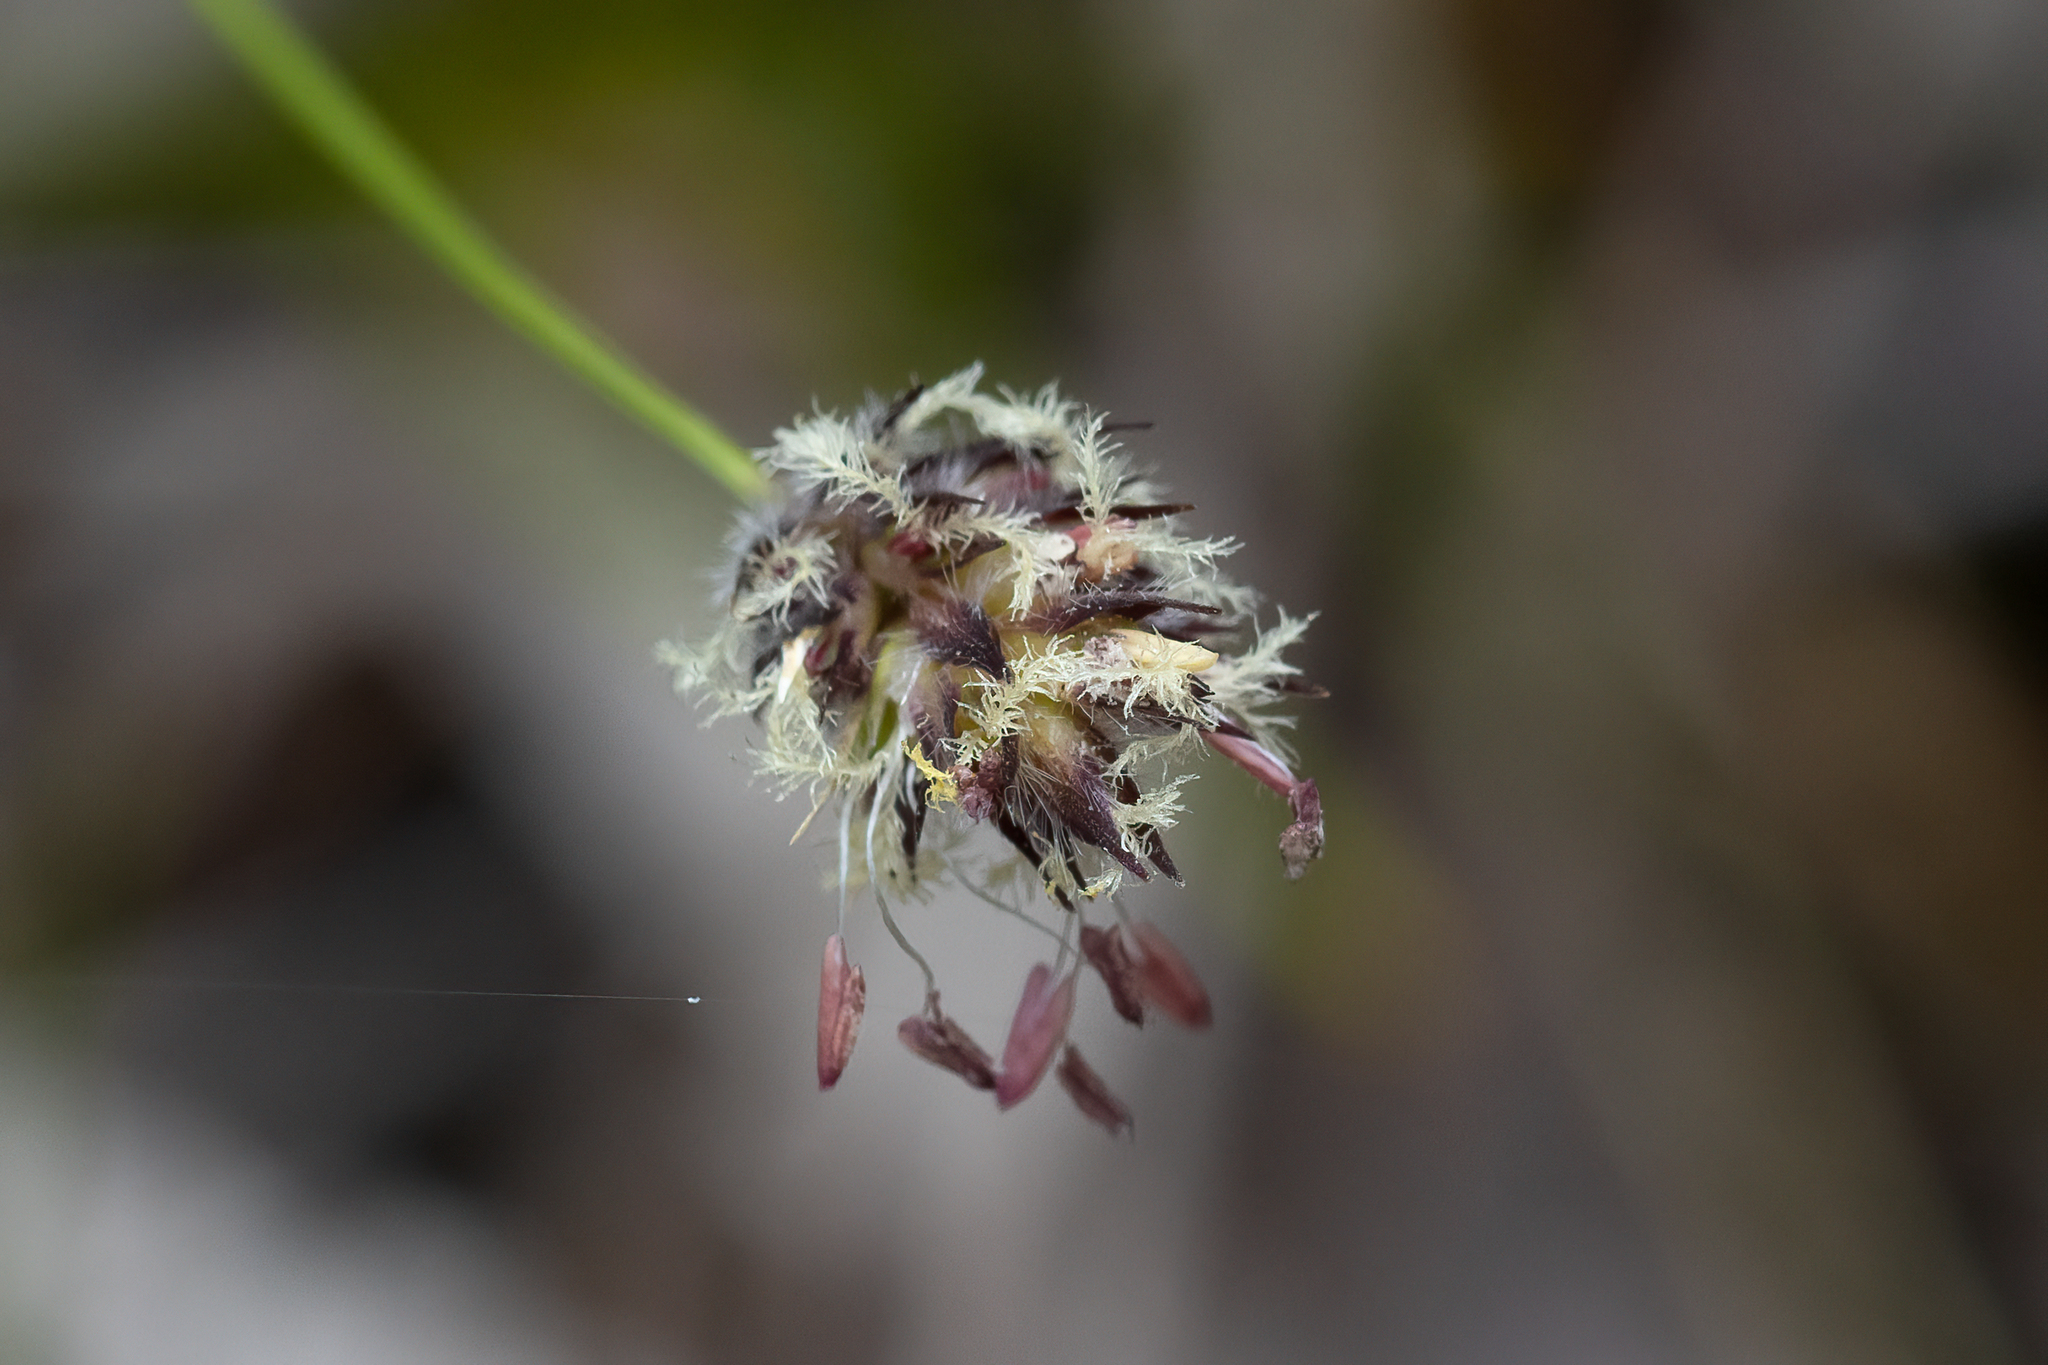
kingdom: Plantae
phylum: Tracheophyta
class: Liliopsida
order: Poales
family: Poaceae
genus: Amphipogon
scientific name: Amphipogon amphipogonoides
